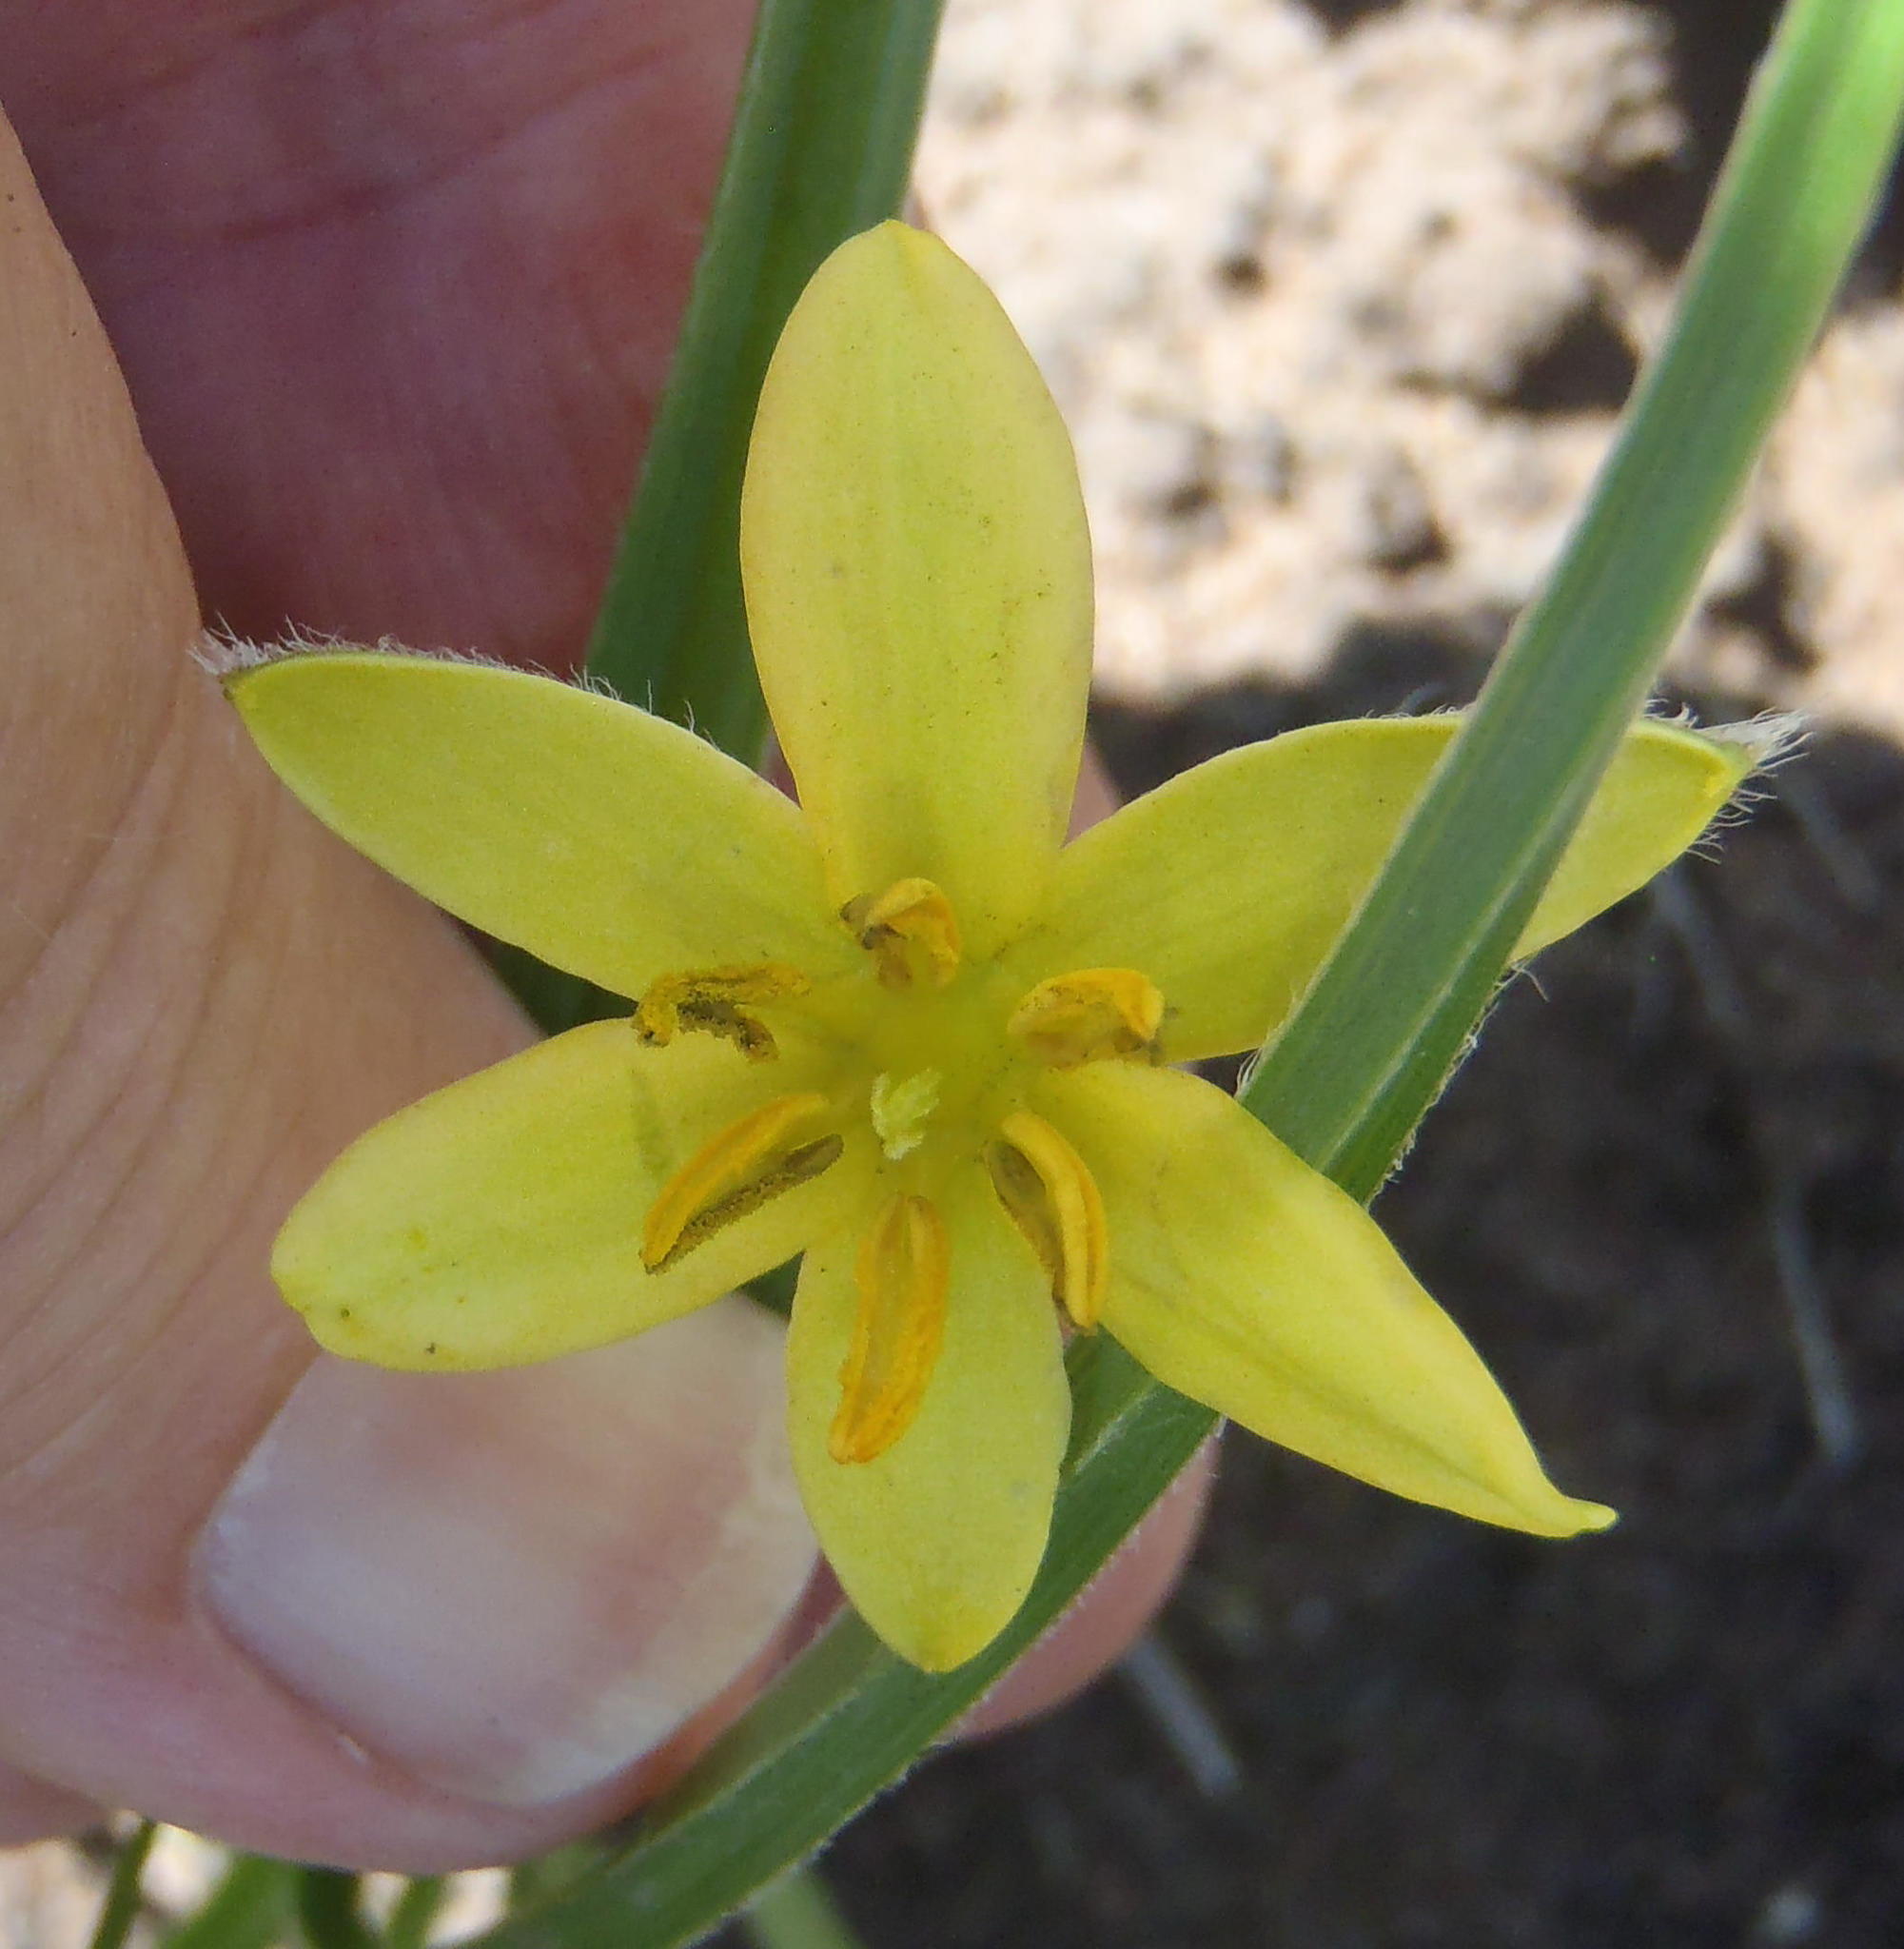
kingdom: Plantae
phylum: Tracheophyta
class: Liliopsida
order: Asparagales
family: Hypoxidaceae
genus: Hypoxis
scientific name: Hypoxis longifolia
